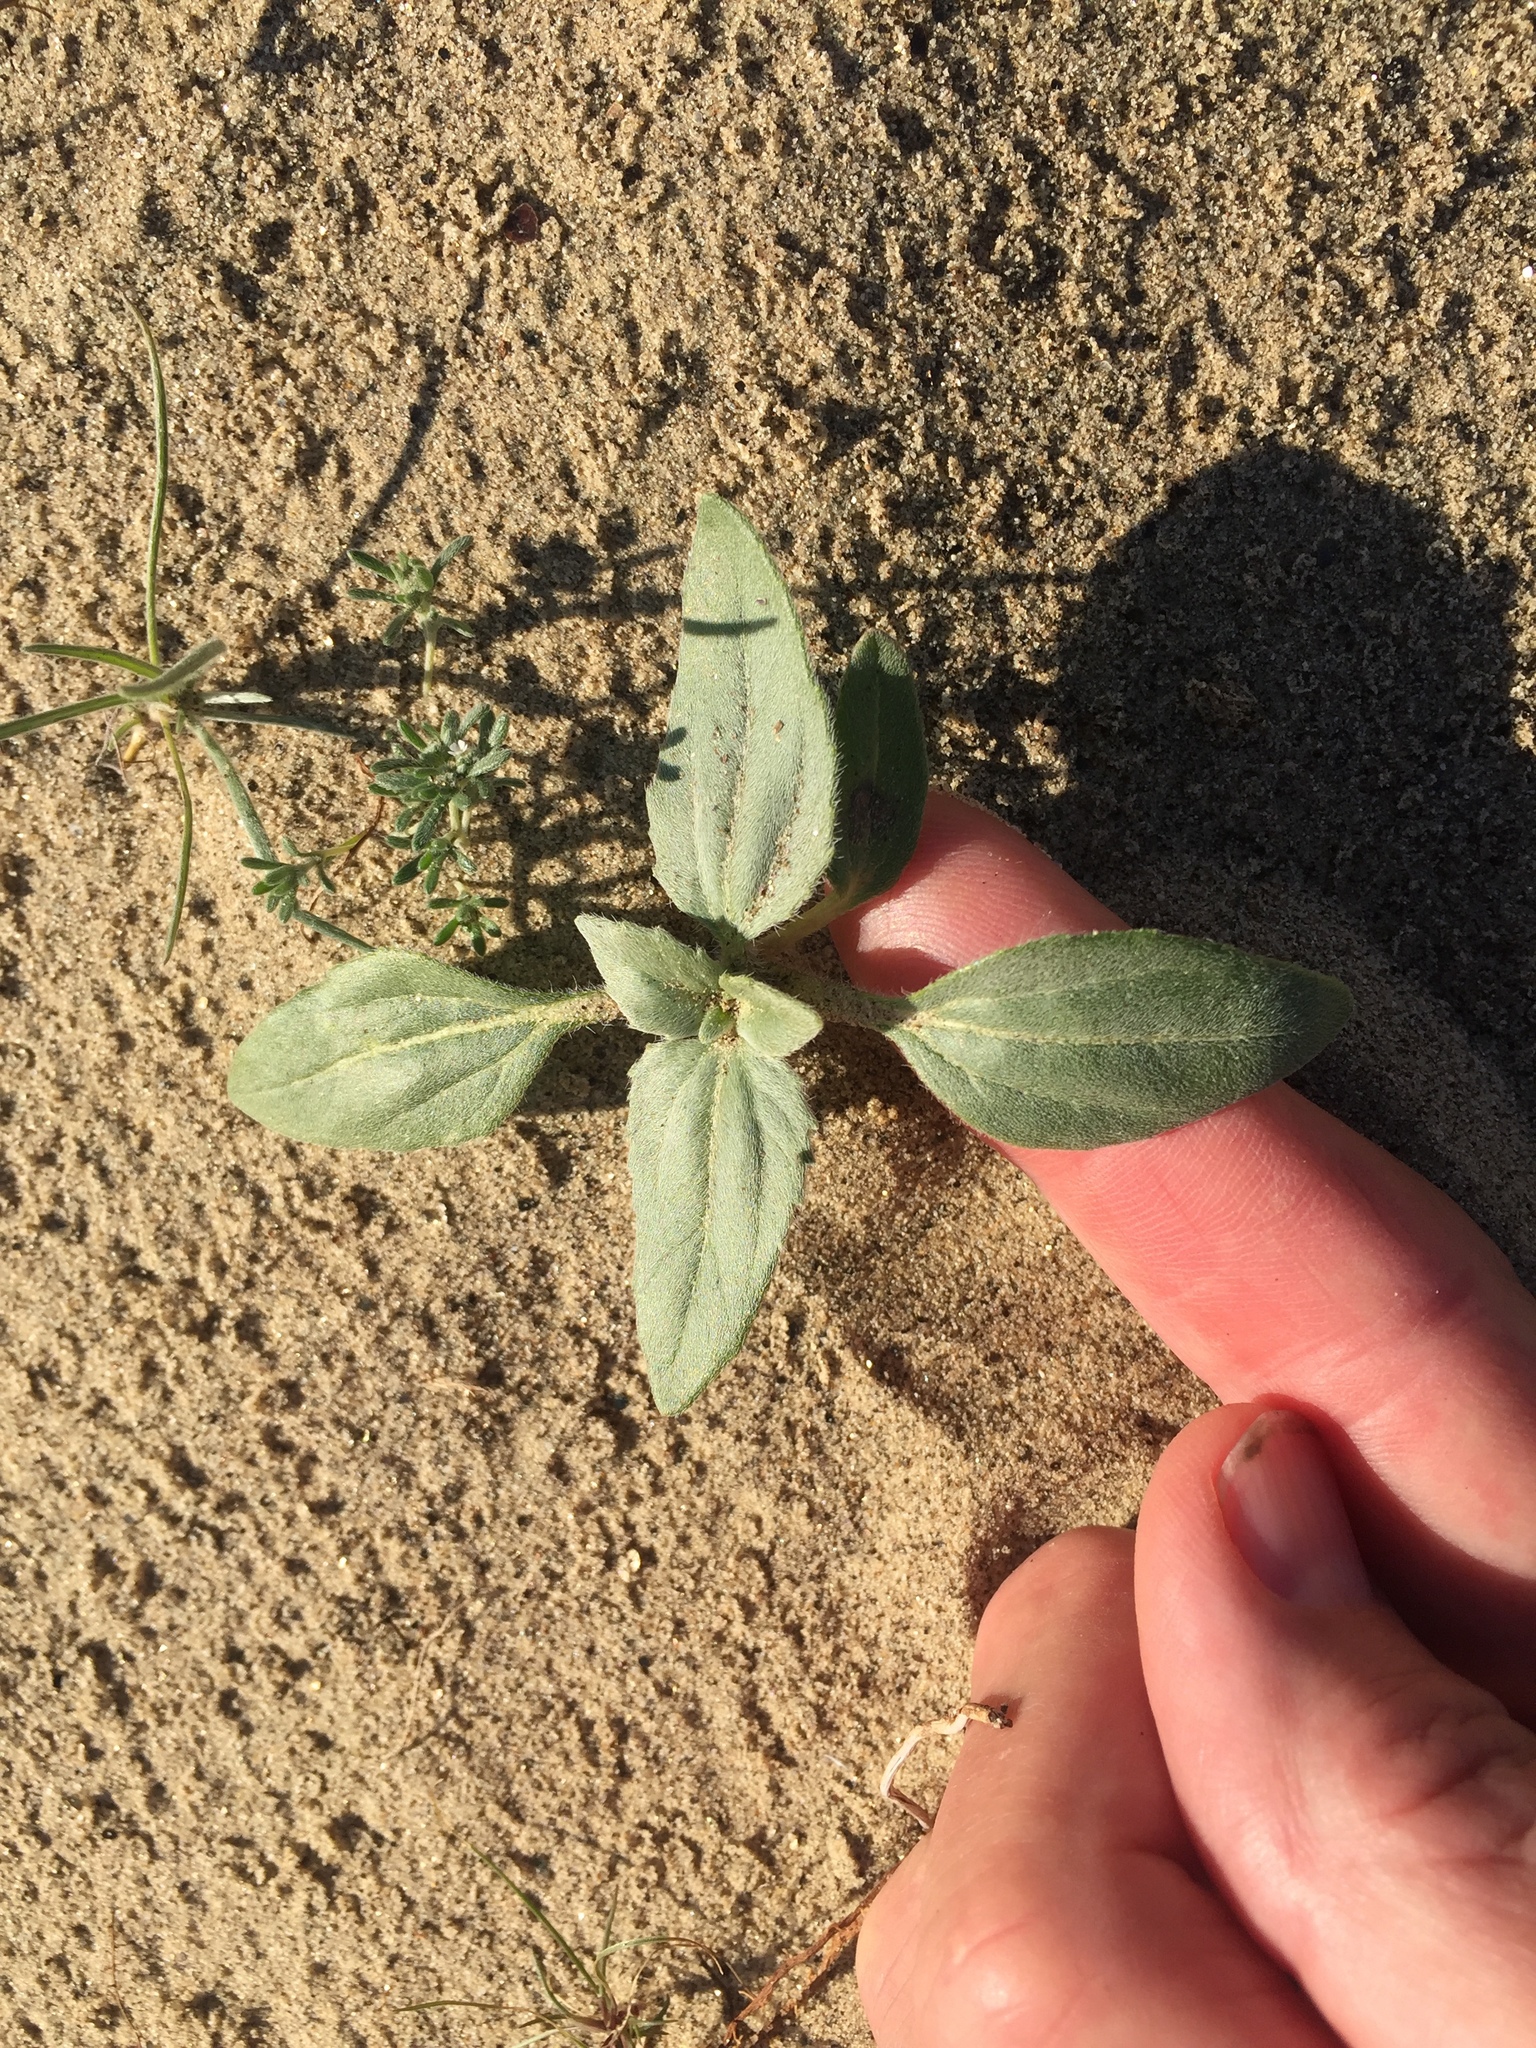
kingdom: Plantae
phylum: Tracheophyta
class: Magnoliopsida
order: Asterales
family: Asteraceae
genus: Helianthus
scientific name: Helianthus petiolaris
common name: Lesser sunflower
